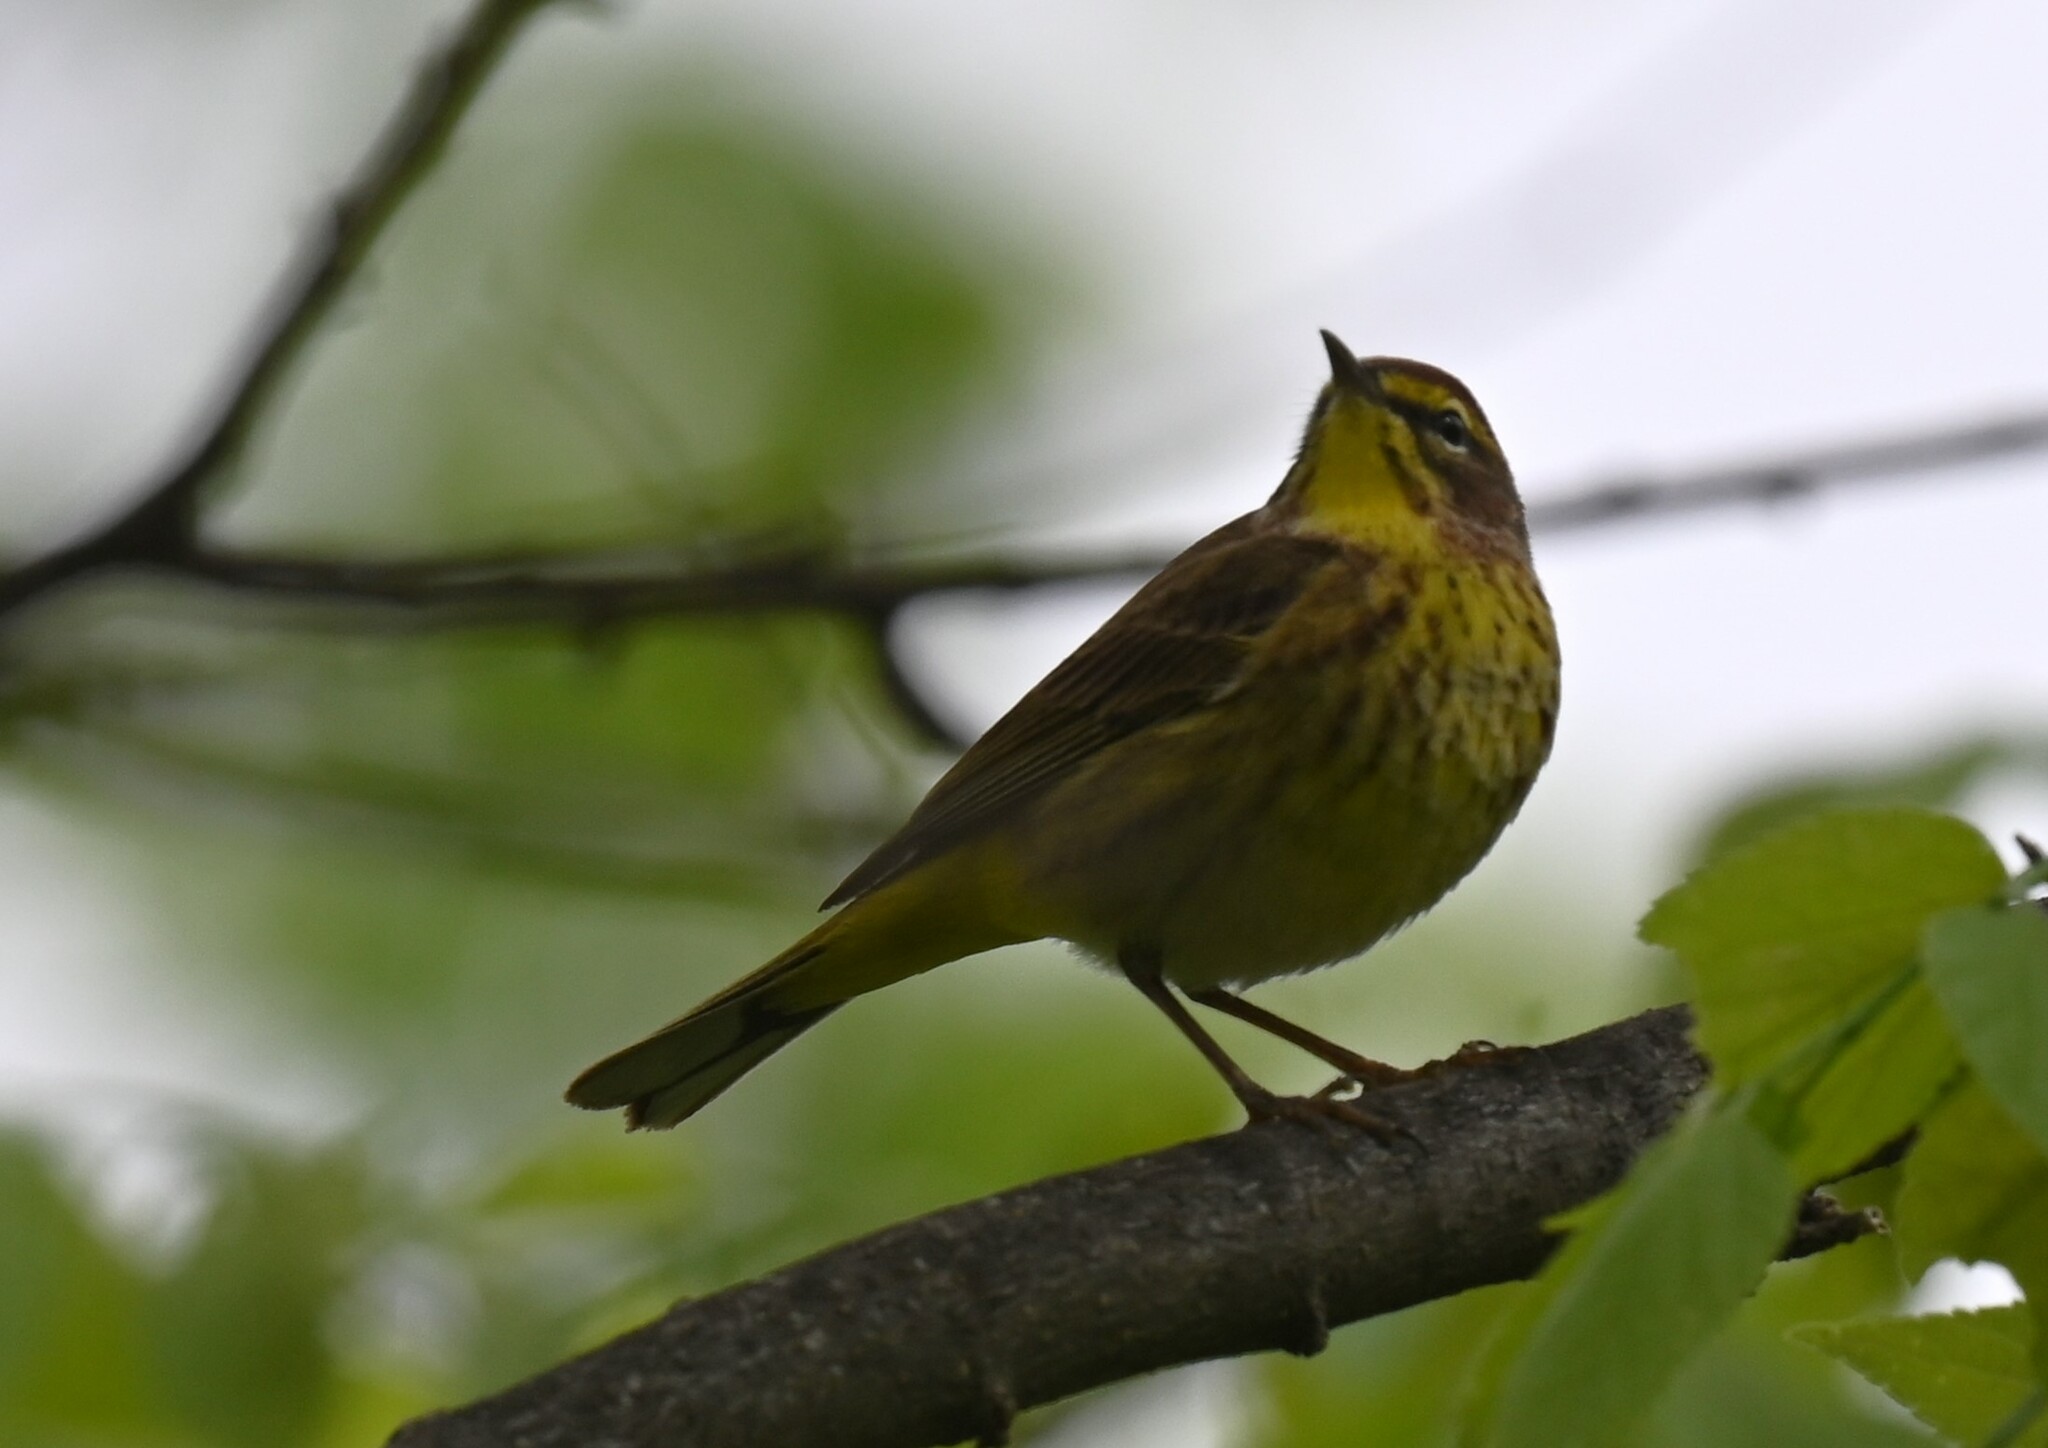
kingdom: Animalia
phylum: Chordata
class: Aves
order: Passeriformes
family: Parulidae
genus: Setophaga
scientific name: Setophaga palmarum
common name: Palm warbler
